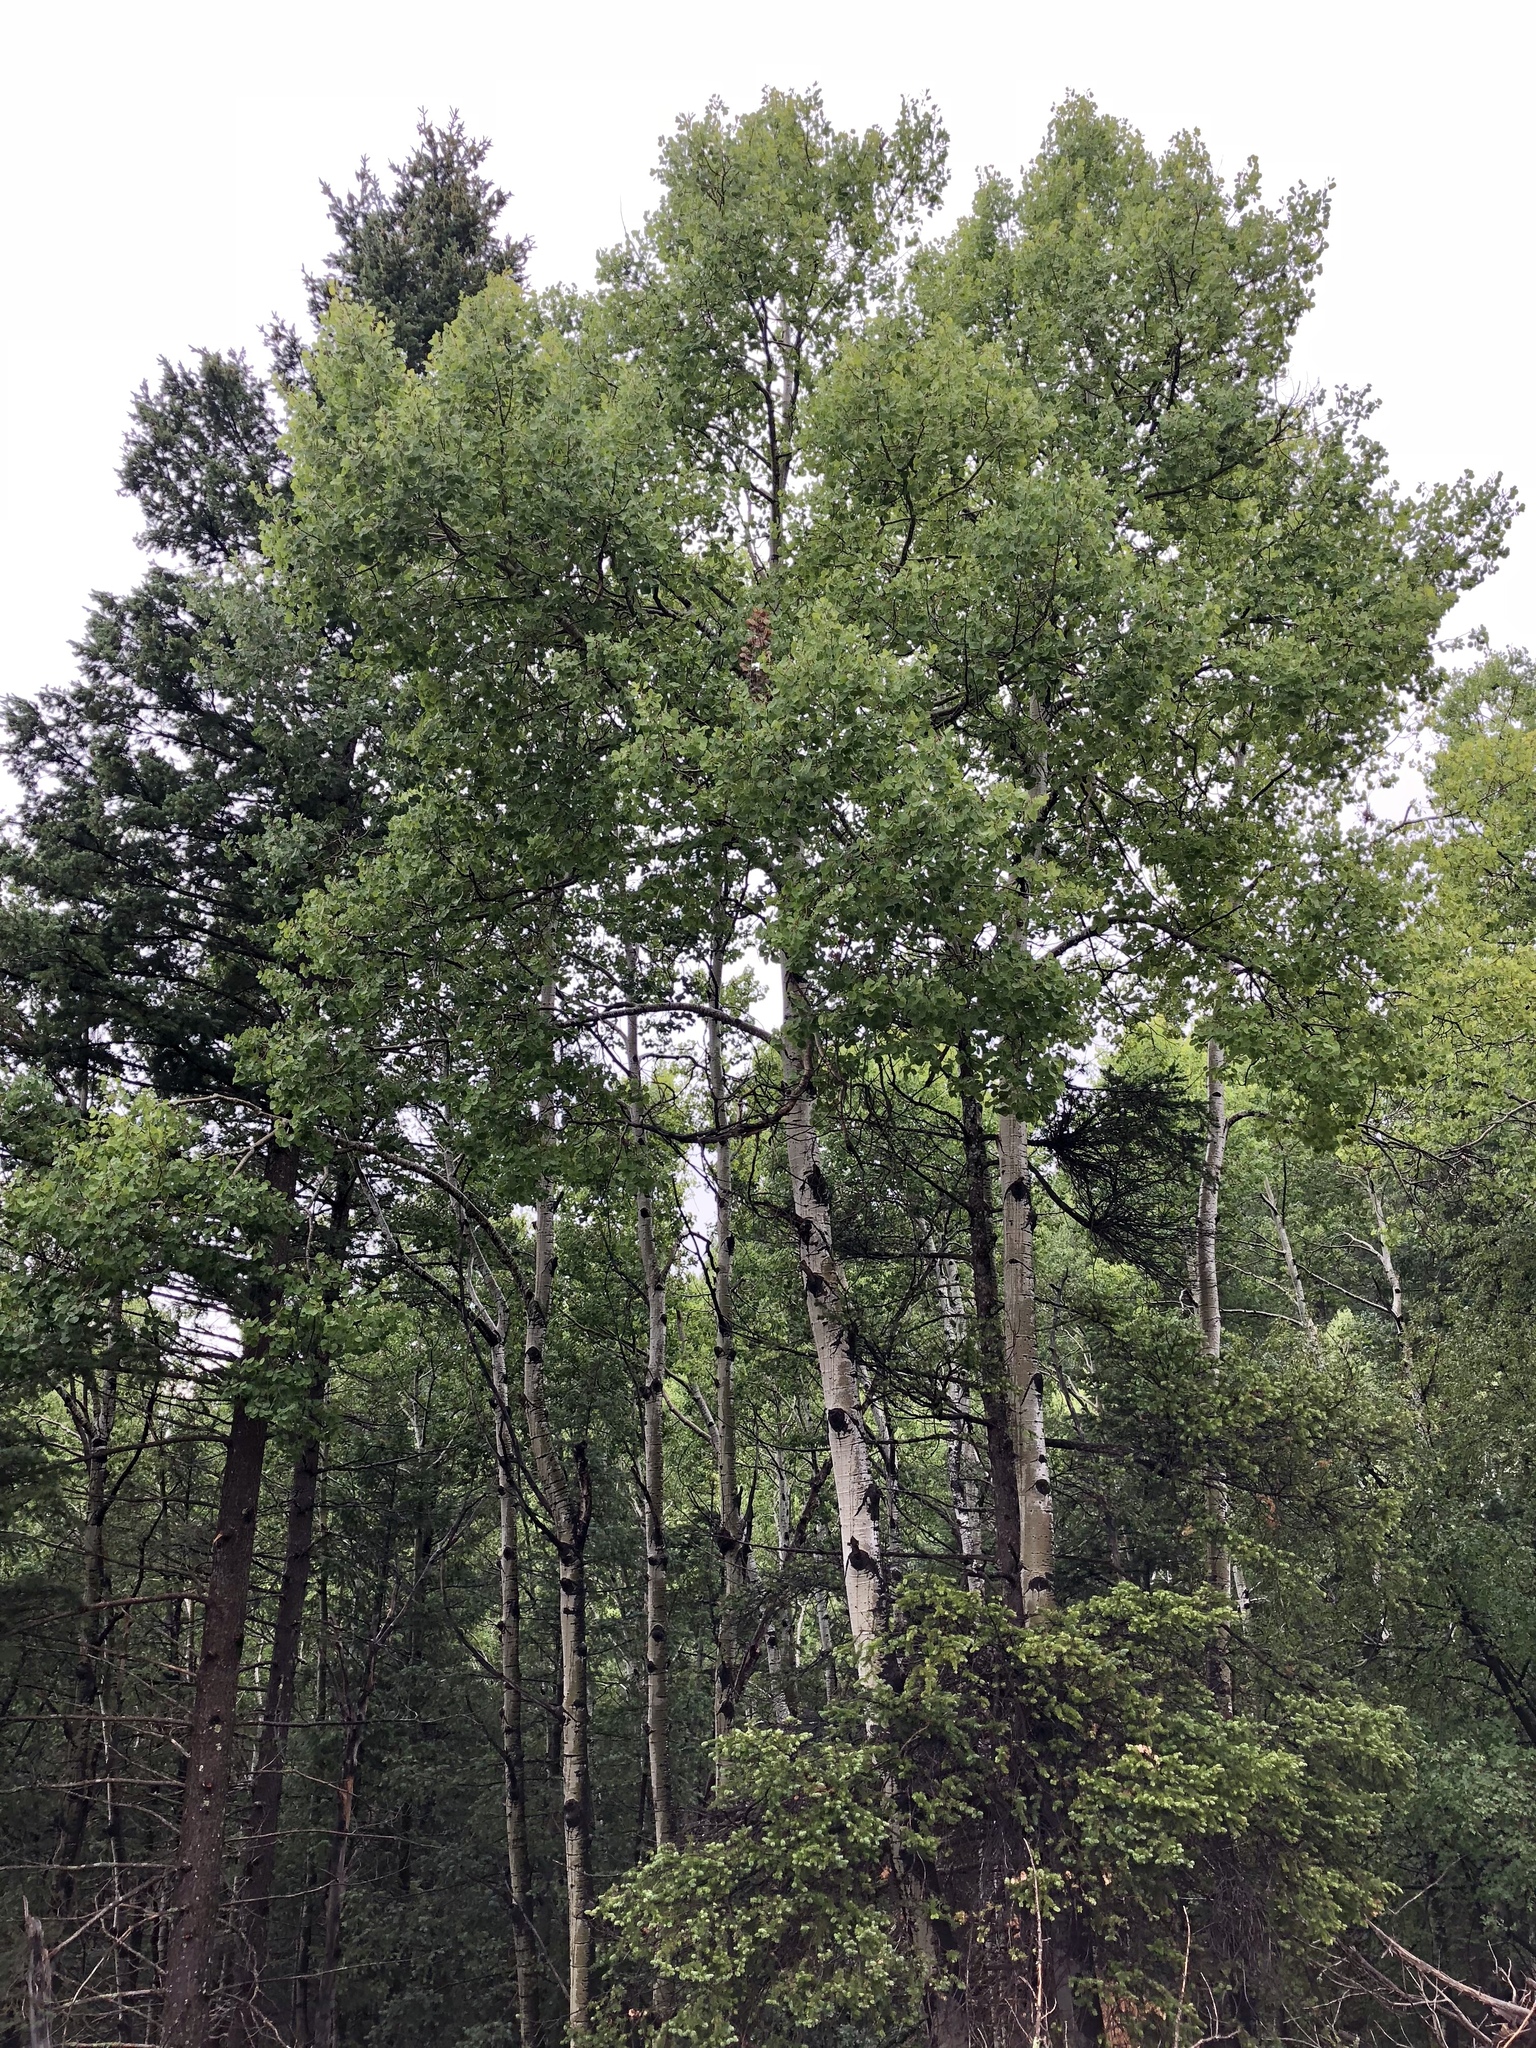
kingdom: Plantae
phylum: Tracheophyta
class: Magnoliopsida
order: Malpighiales
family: Salicaceae
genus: Populus
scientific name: Populus tremuloides
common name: Quaking aspen
